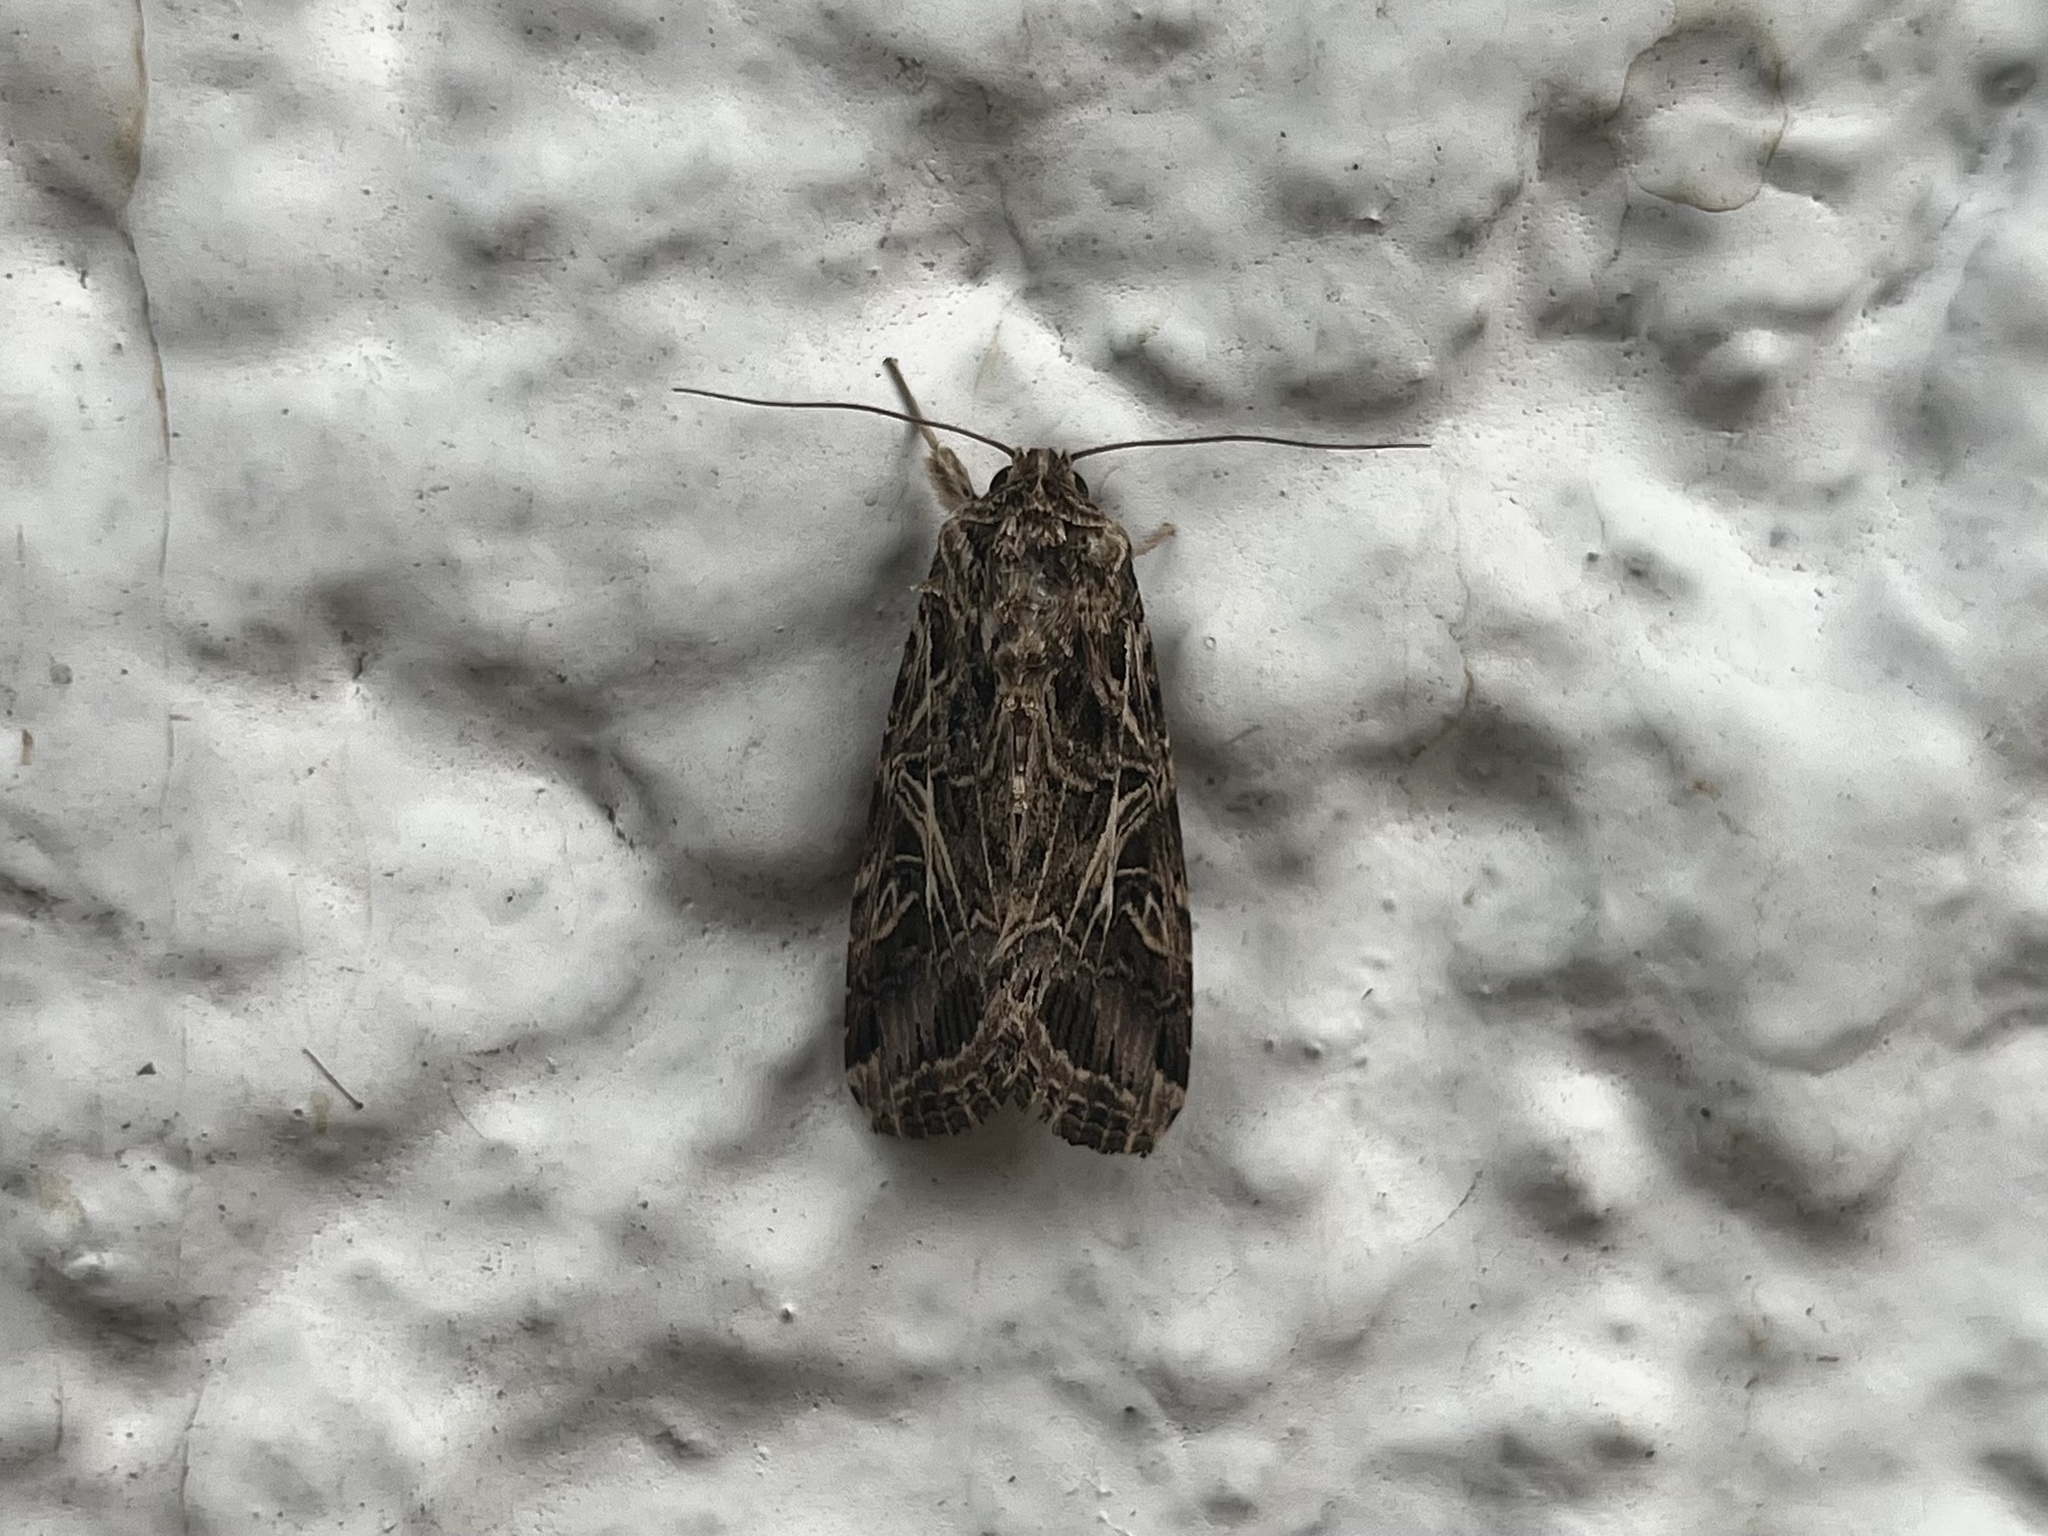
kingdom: Animalia
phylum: Arthropoda
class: Insecta
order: Lepidoptera
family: Noctuidae
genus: Spodoptera
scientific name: Spodoptera litura
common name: Asian cotton leafworm
